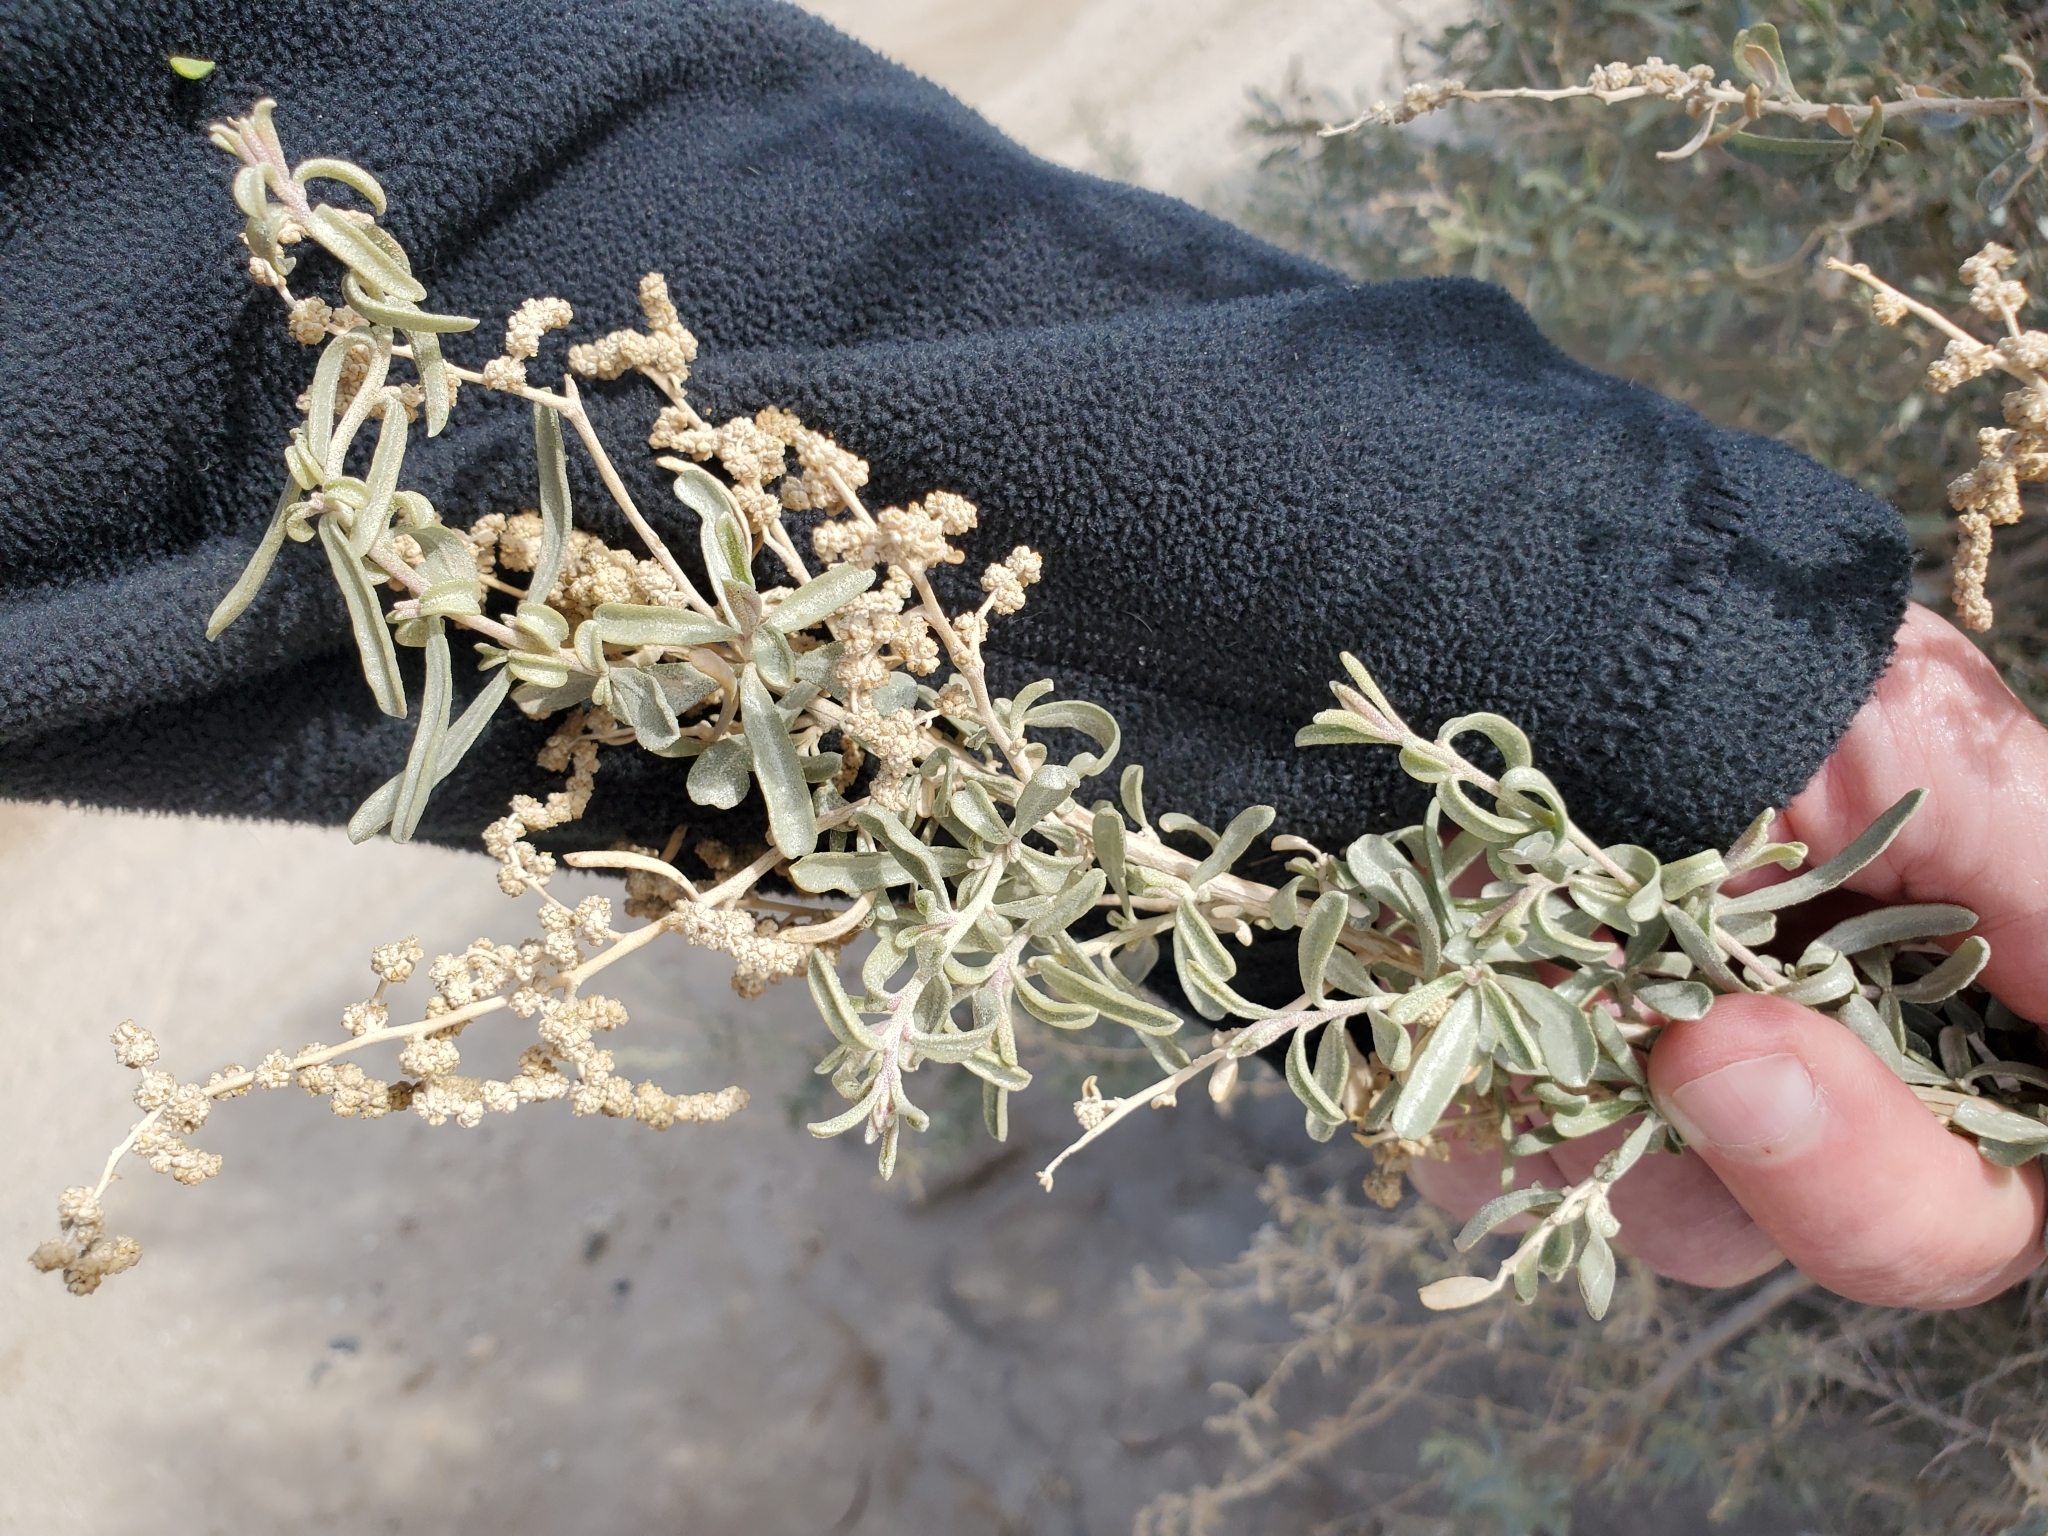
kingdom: Plantae
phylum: Tracheophyta
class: Magnoliopsida
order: Caryophyllales
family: Amaranthaceae
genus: Atriplex
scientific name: Atriplex canescens
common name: Four-wing saltbush
